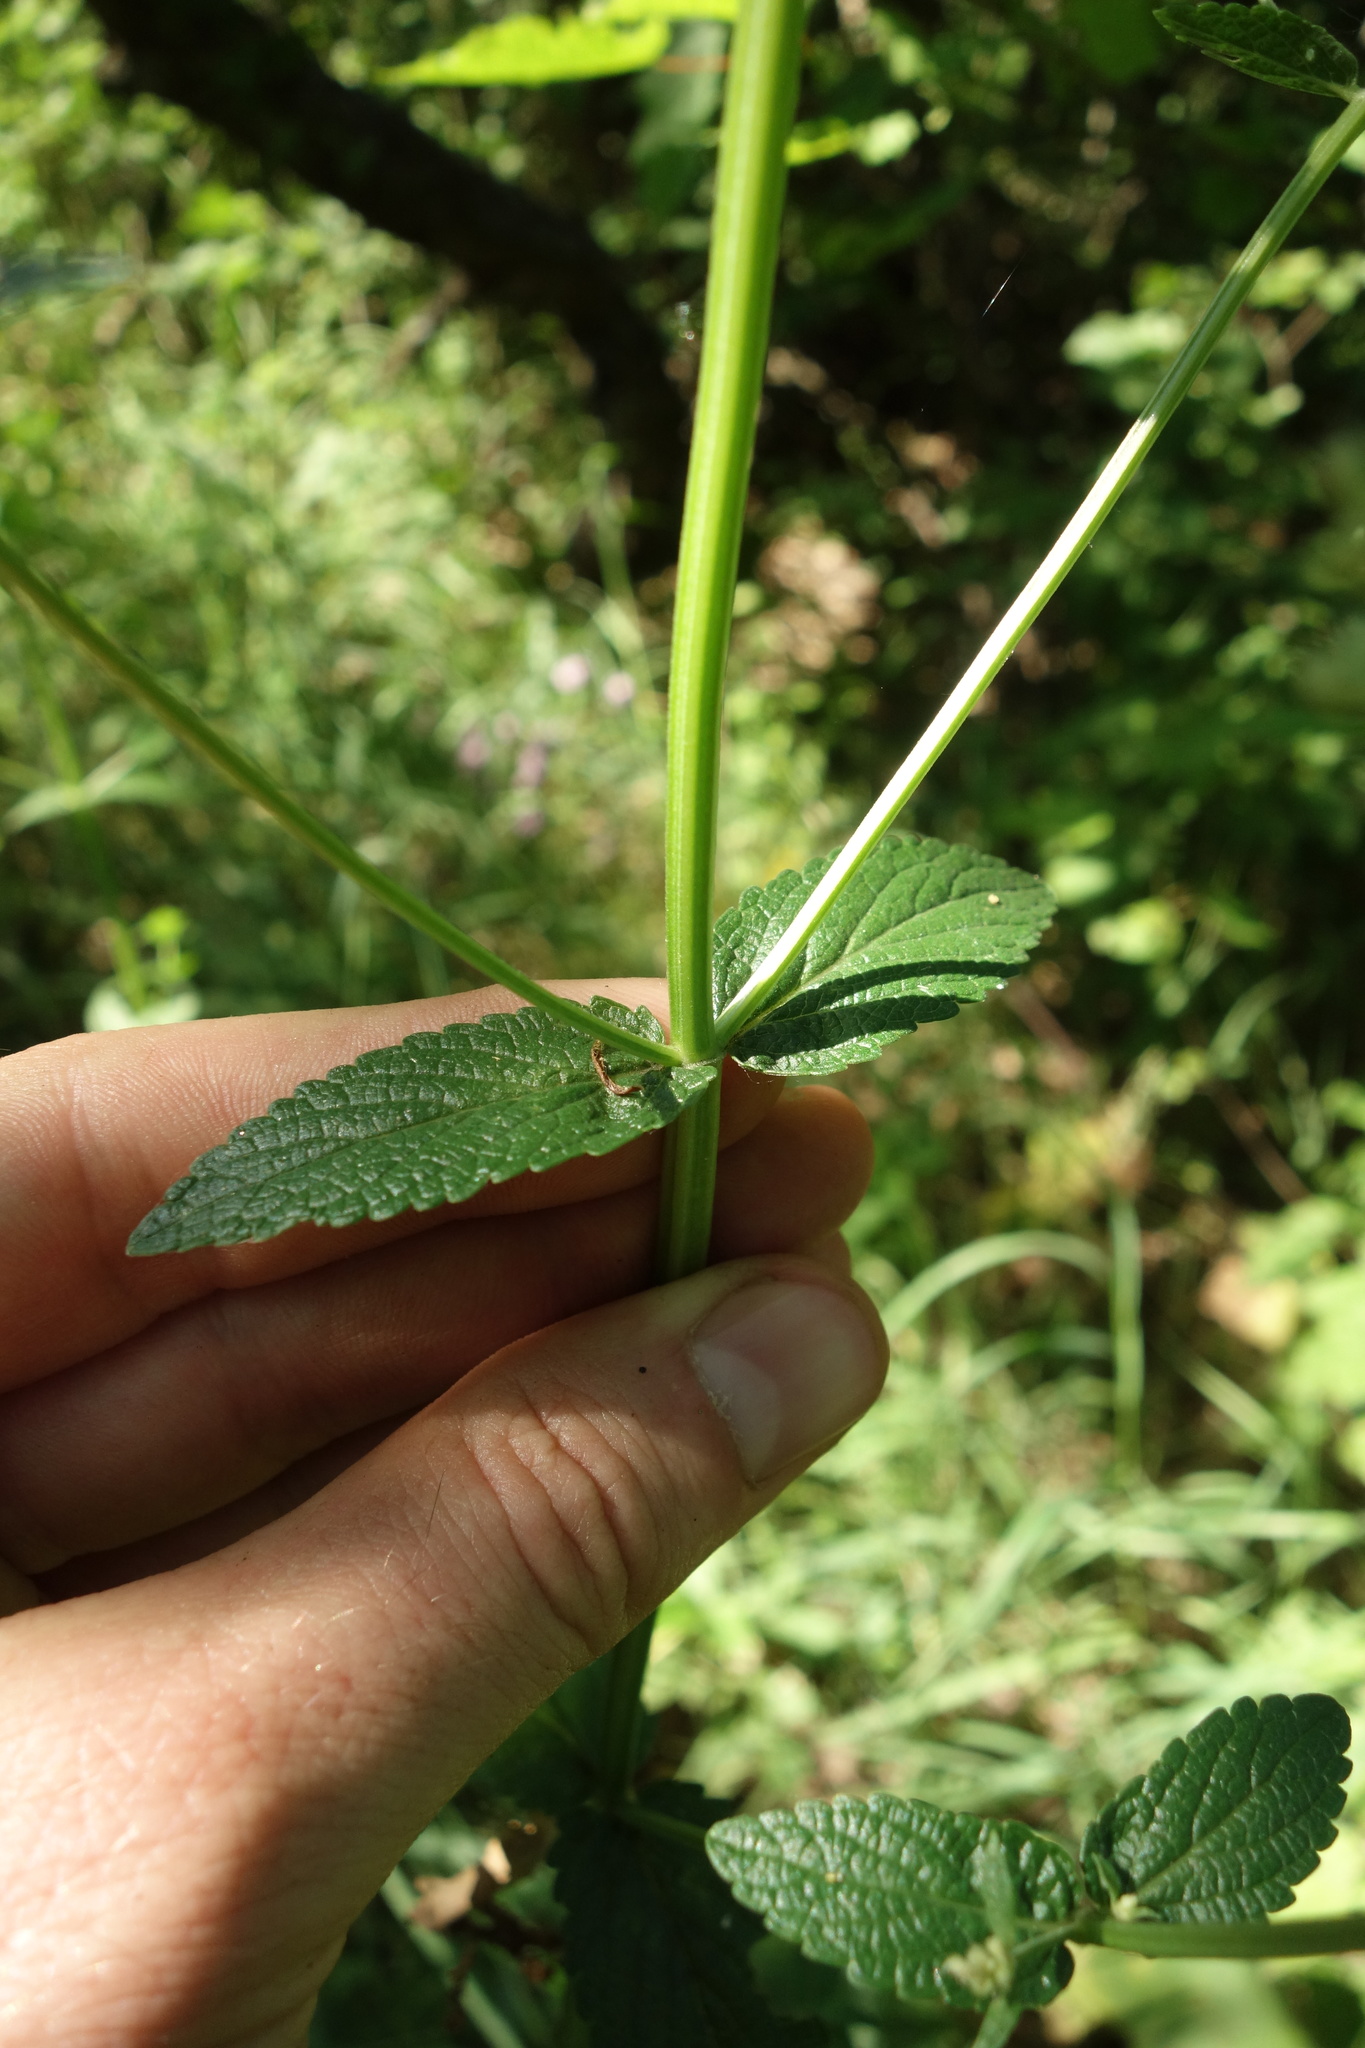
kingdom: Plantae
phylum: Tracheophyta
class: Magnoliopsida
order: Lamiales
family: Lamiaceae
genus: Nepeta
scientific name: Nepeta nuda
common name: Hairless catmint
